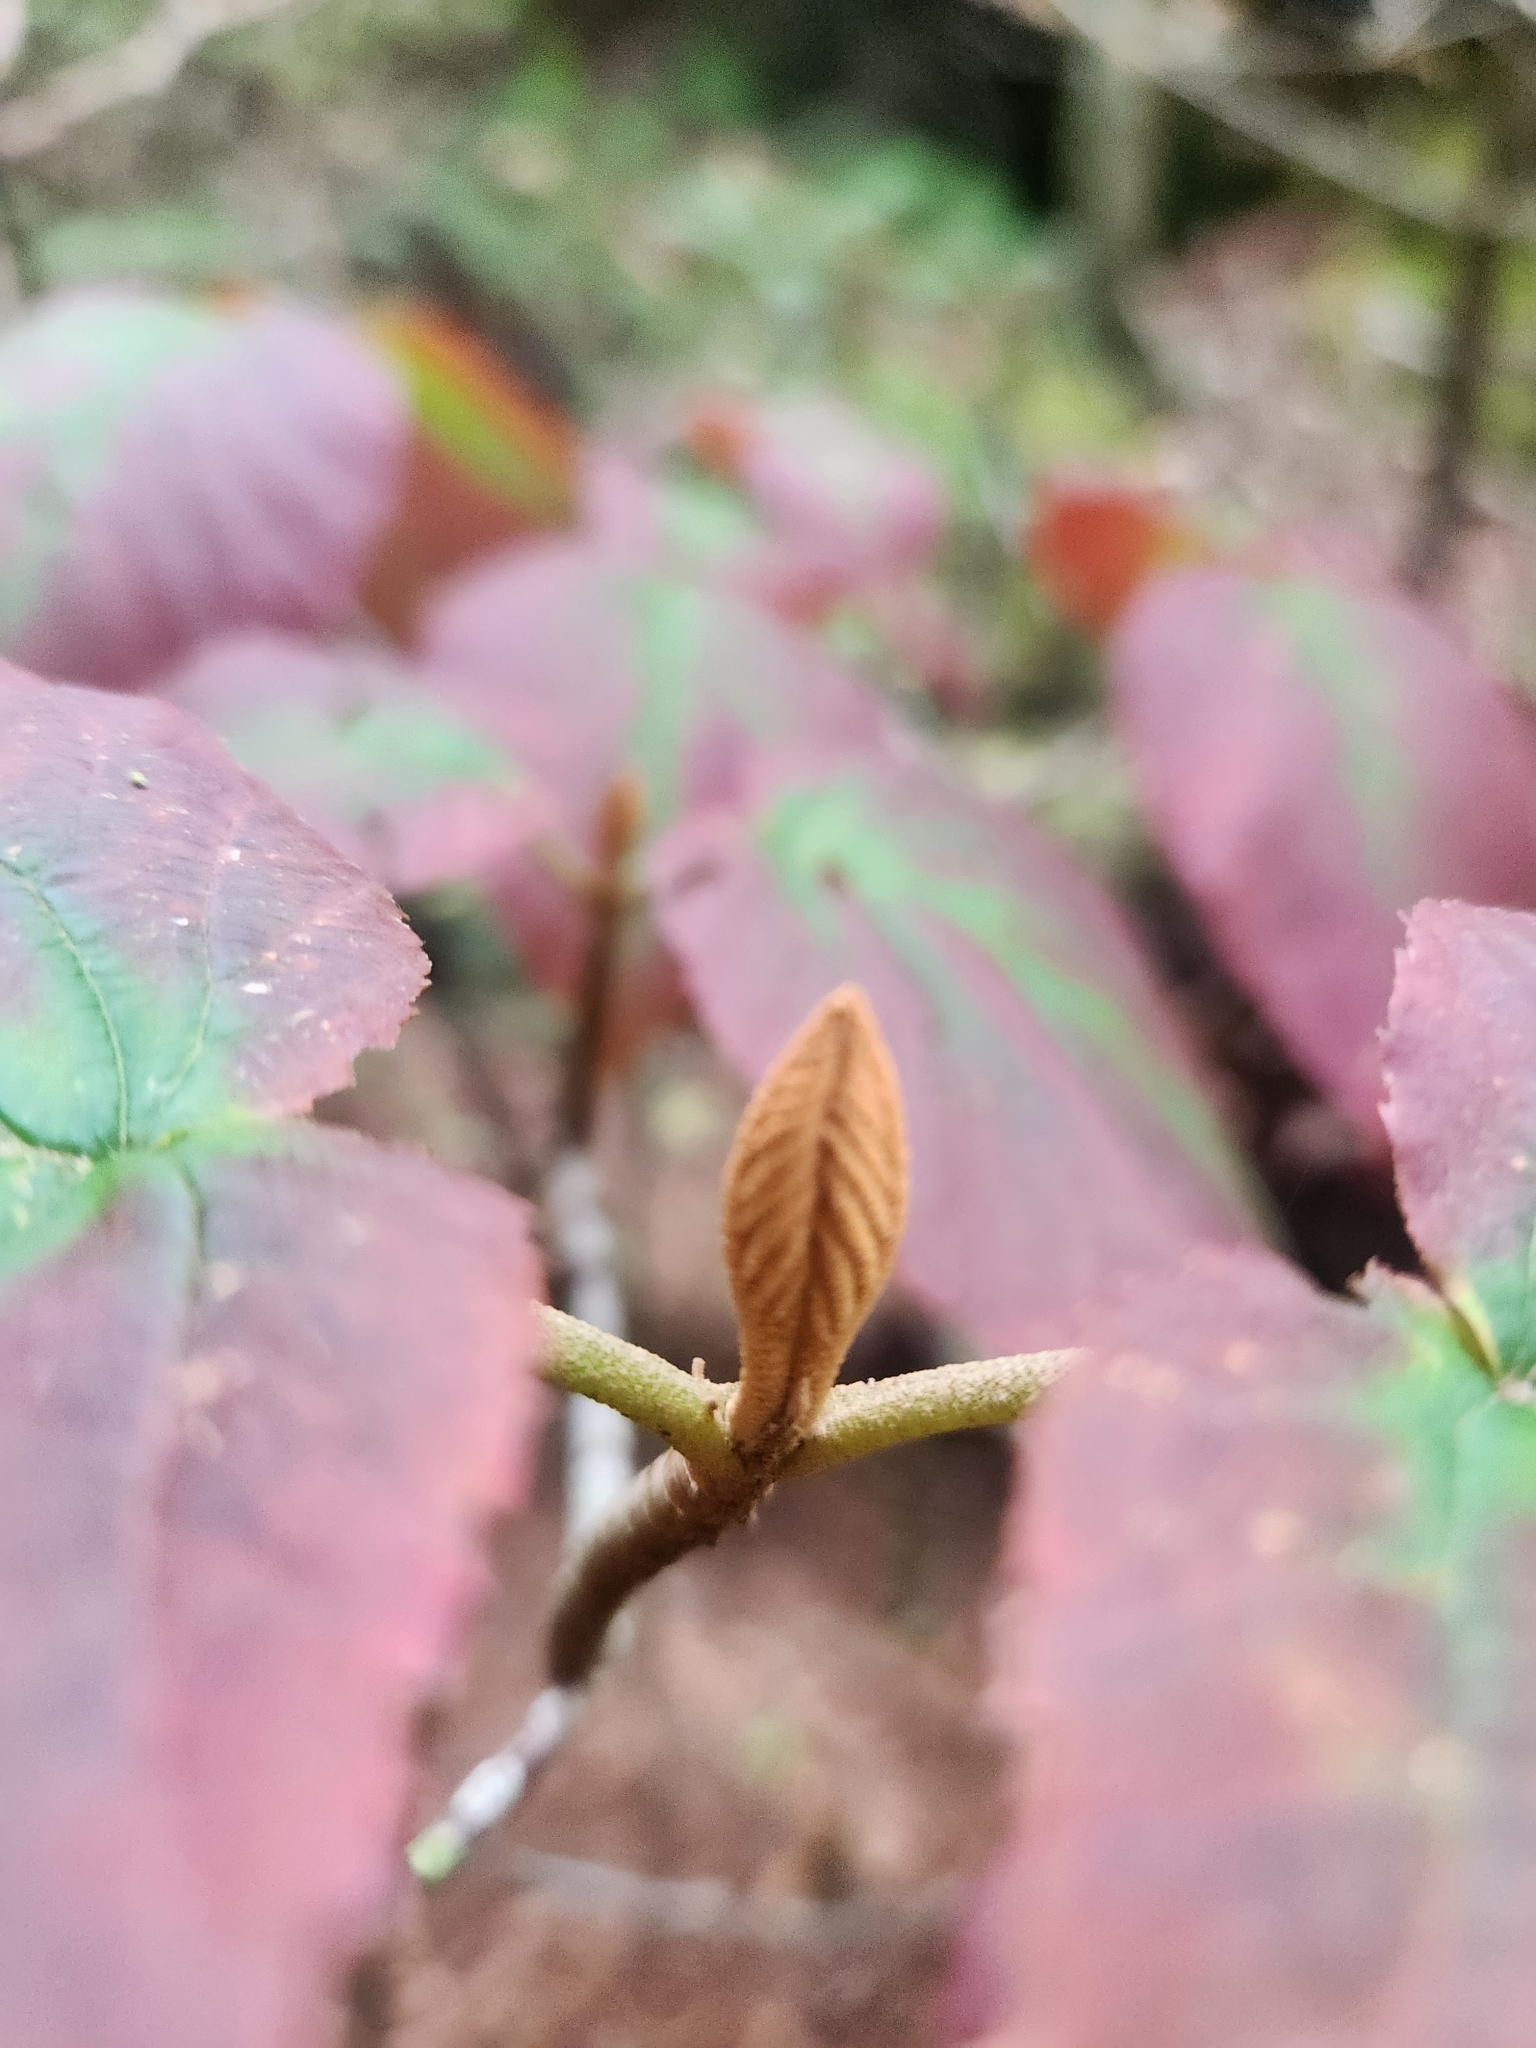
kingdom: Plantae
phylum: Tracheophyta
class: Magnoliopsida
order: Dipsacales
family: Viburnaceae
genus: Viburnum
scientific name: Viburnum lantanoides
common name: Hobblebush
